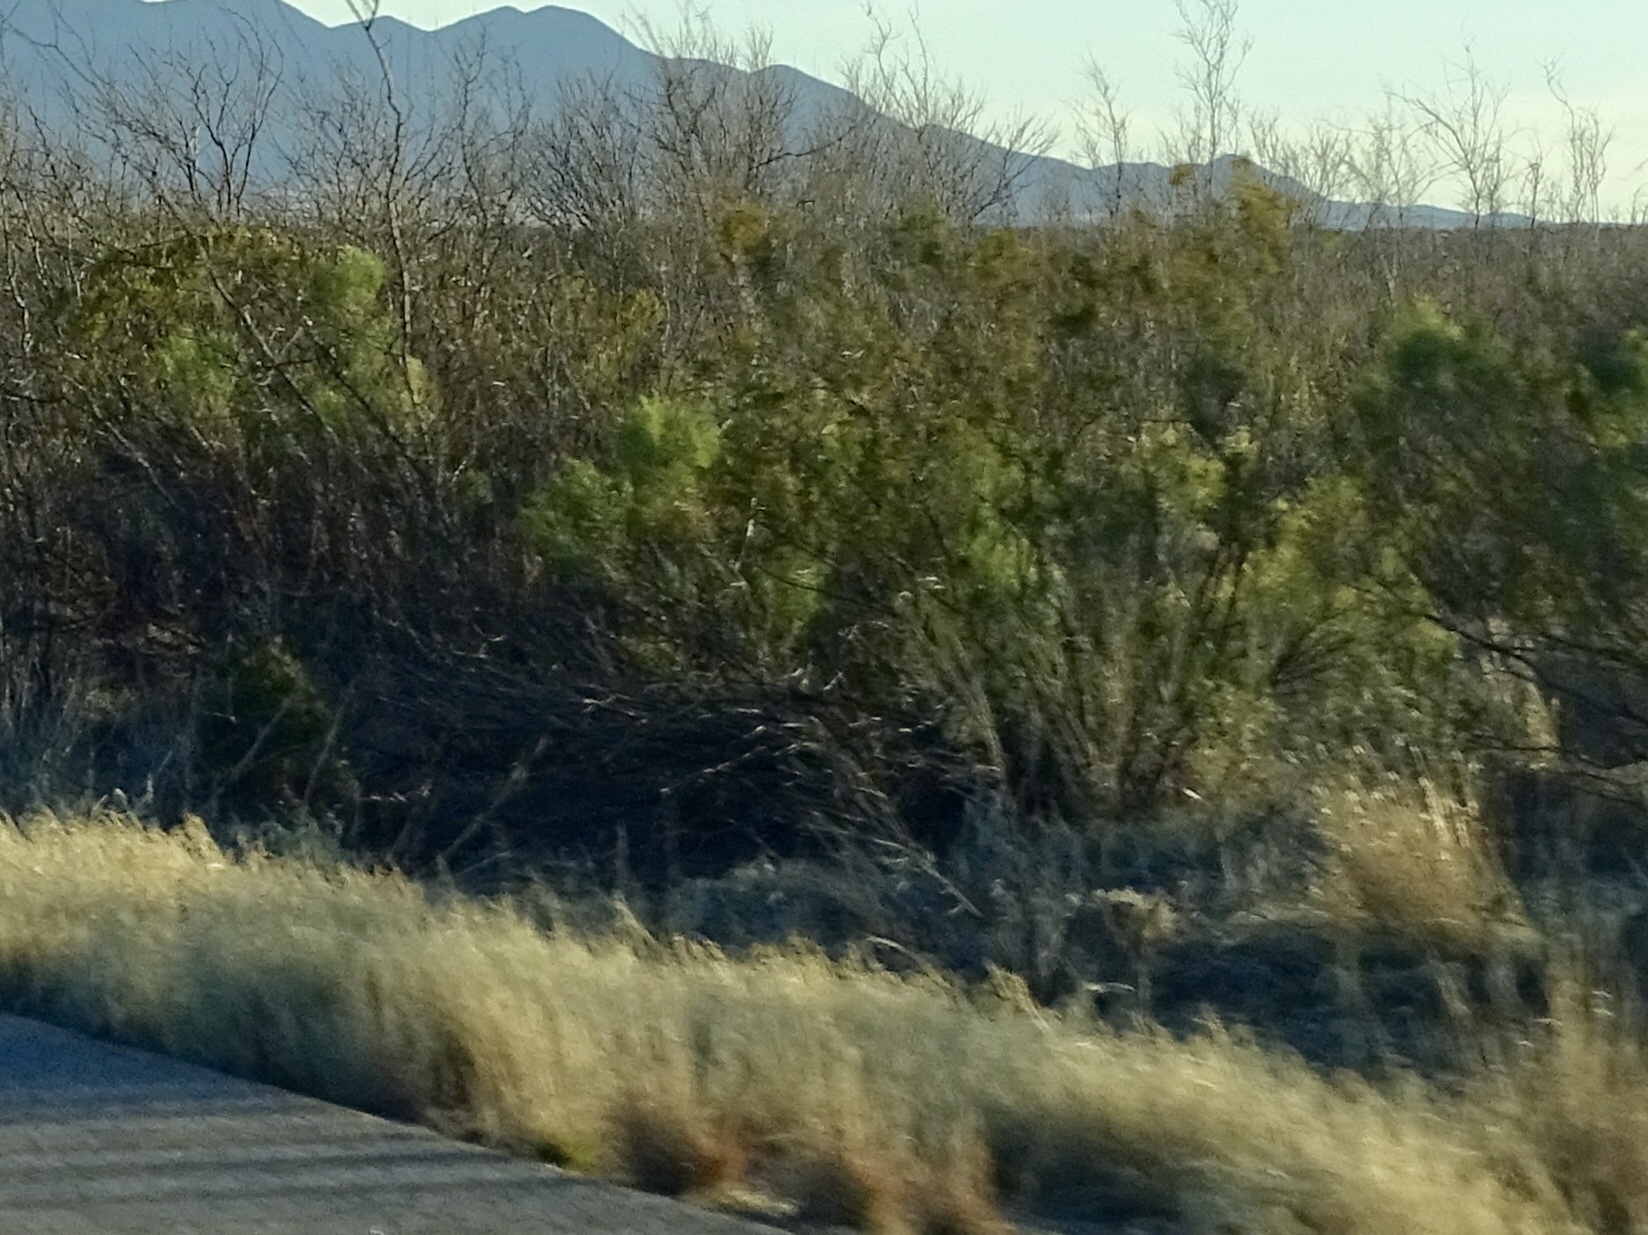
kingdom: Plantae
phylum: Tracheophyta
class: Magnoliopsida
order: Zygophyllales
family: Zygophyllaceae
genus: Larrea
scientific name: Larrea tridentata
